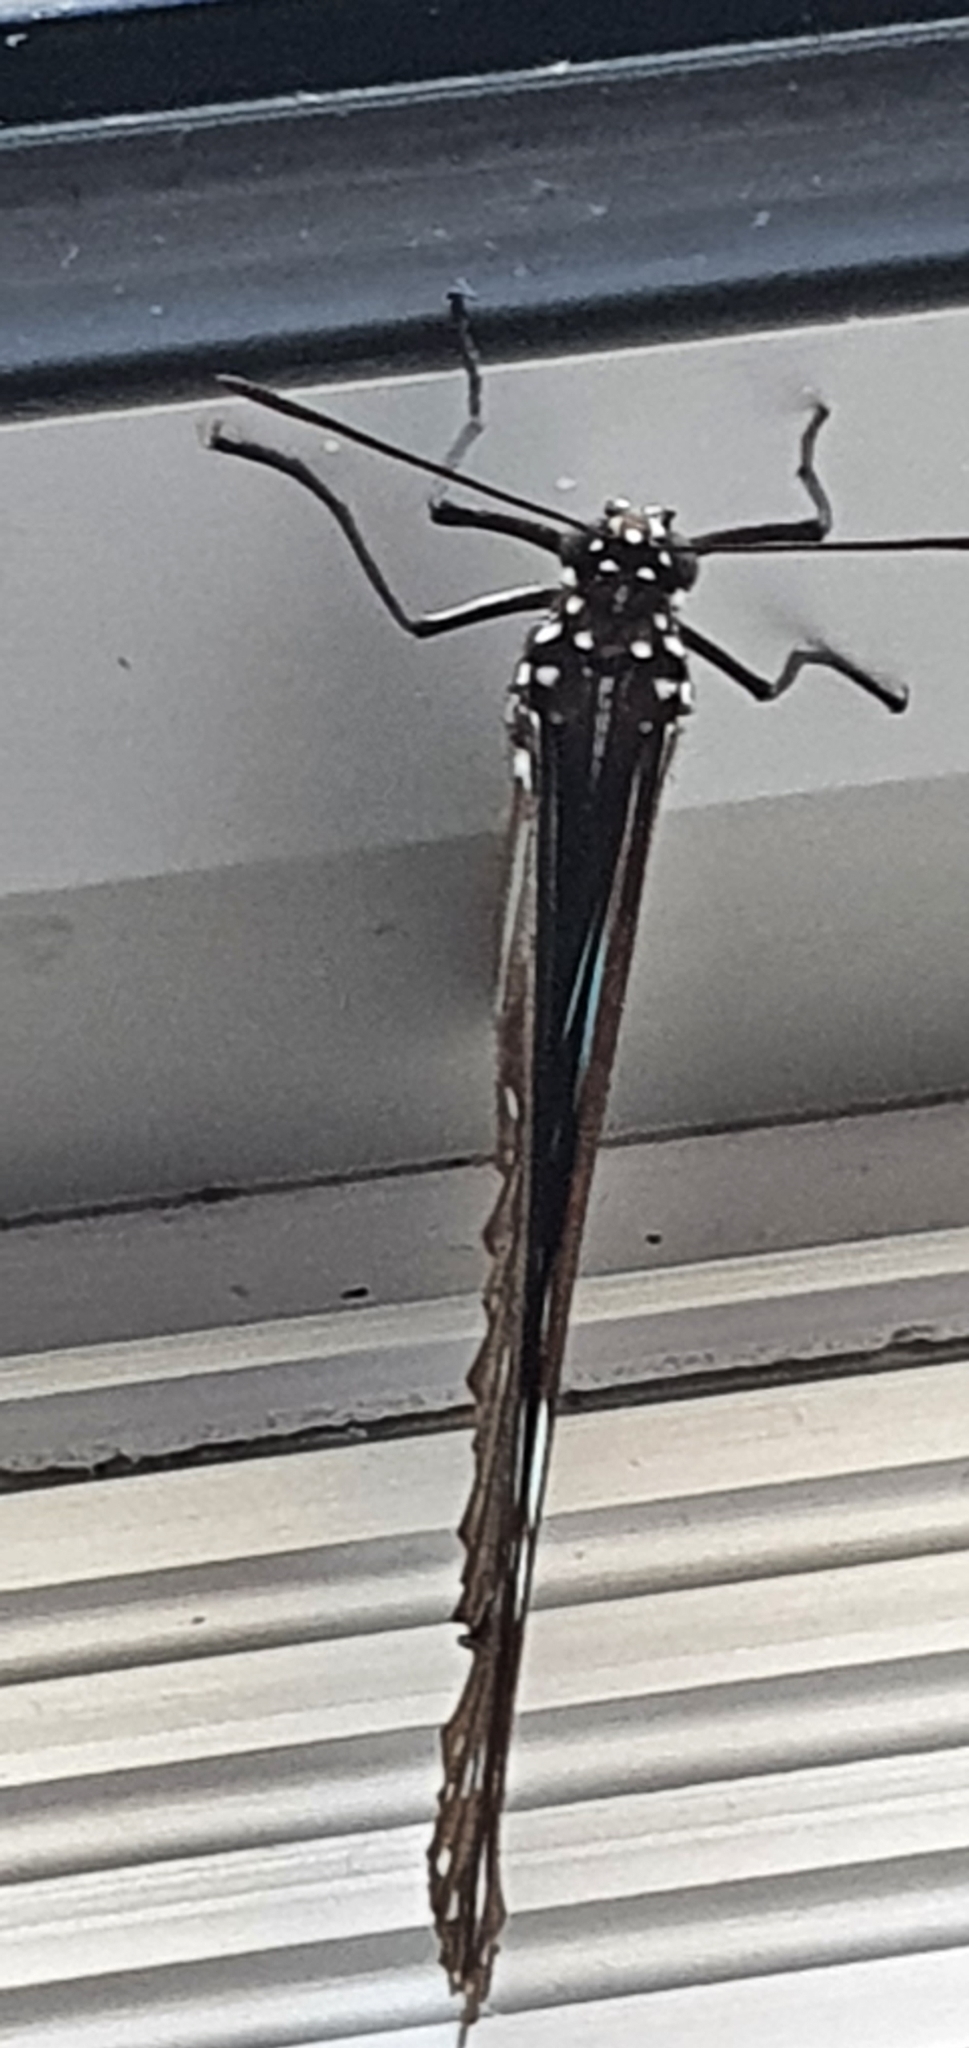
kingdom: Animalia
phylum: Arthropoda
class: Insecta
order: Lepidoptera
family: Nymphalidae
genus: Tirumala
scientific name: Tirumala hamata
